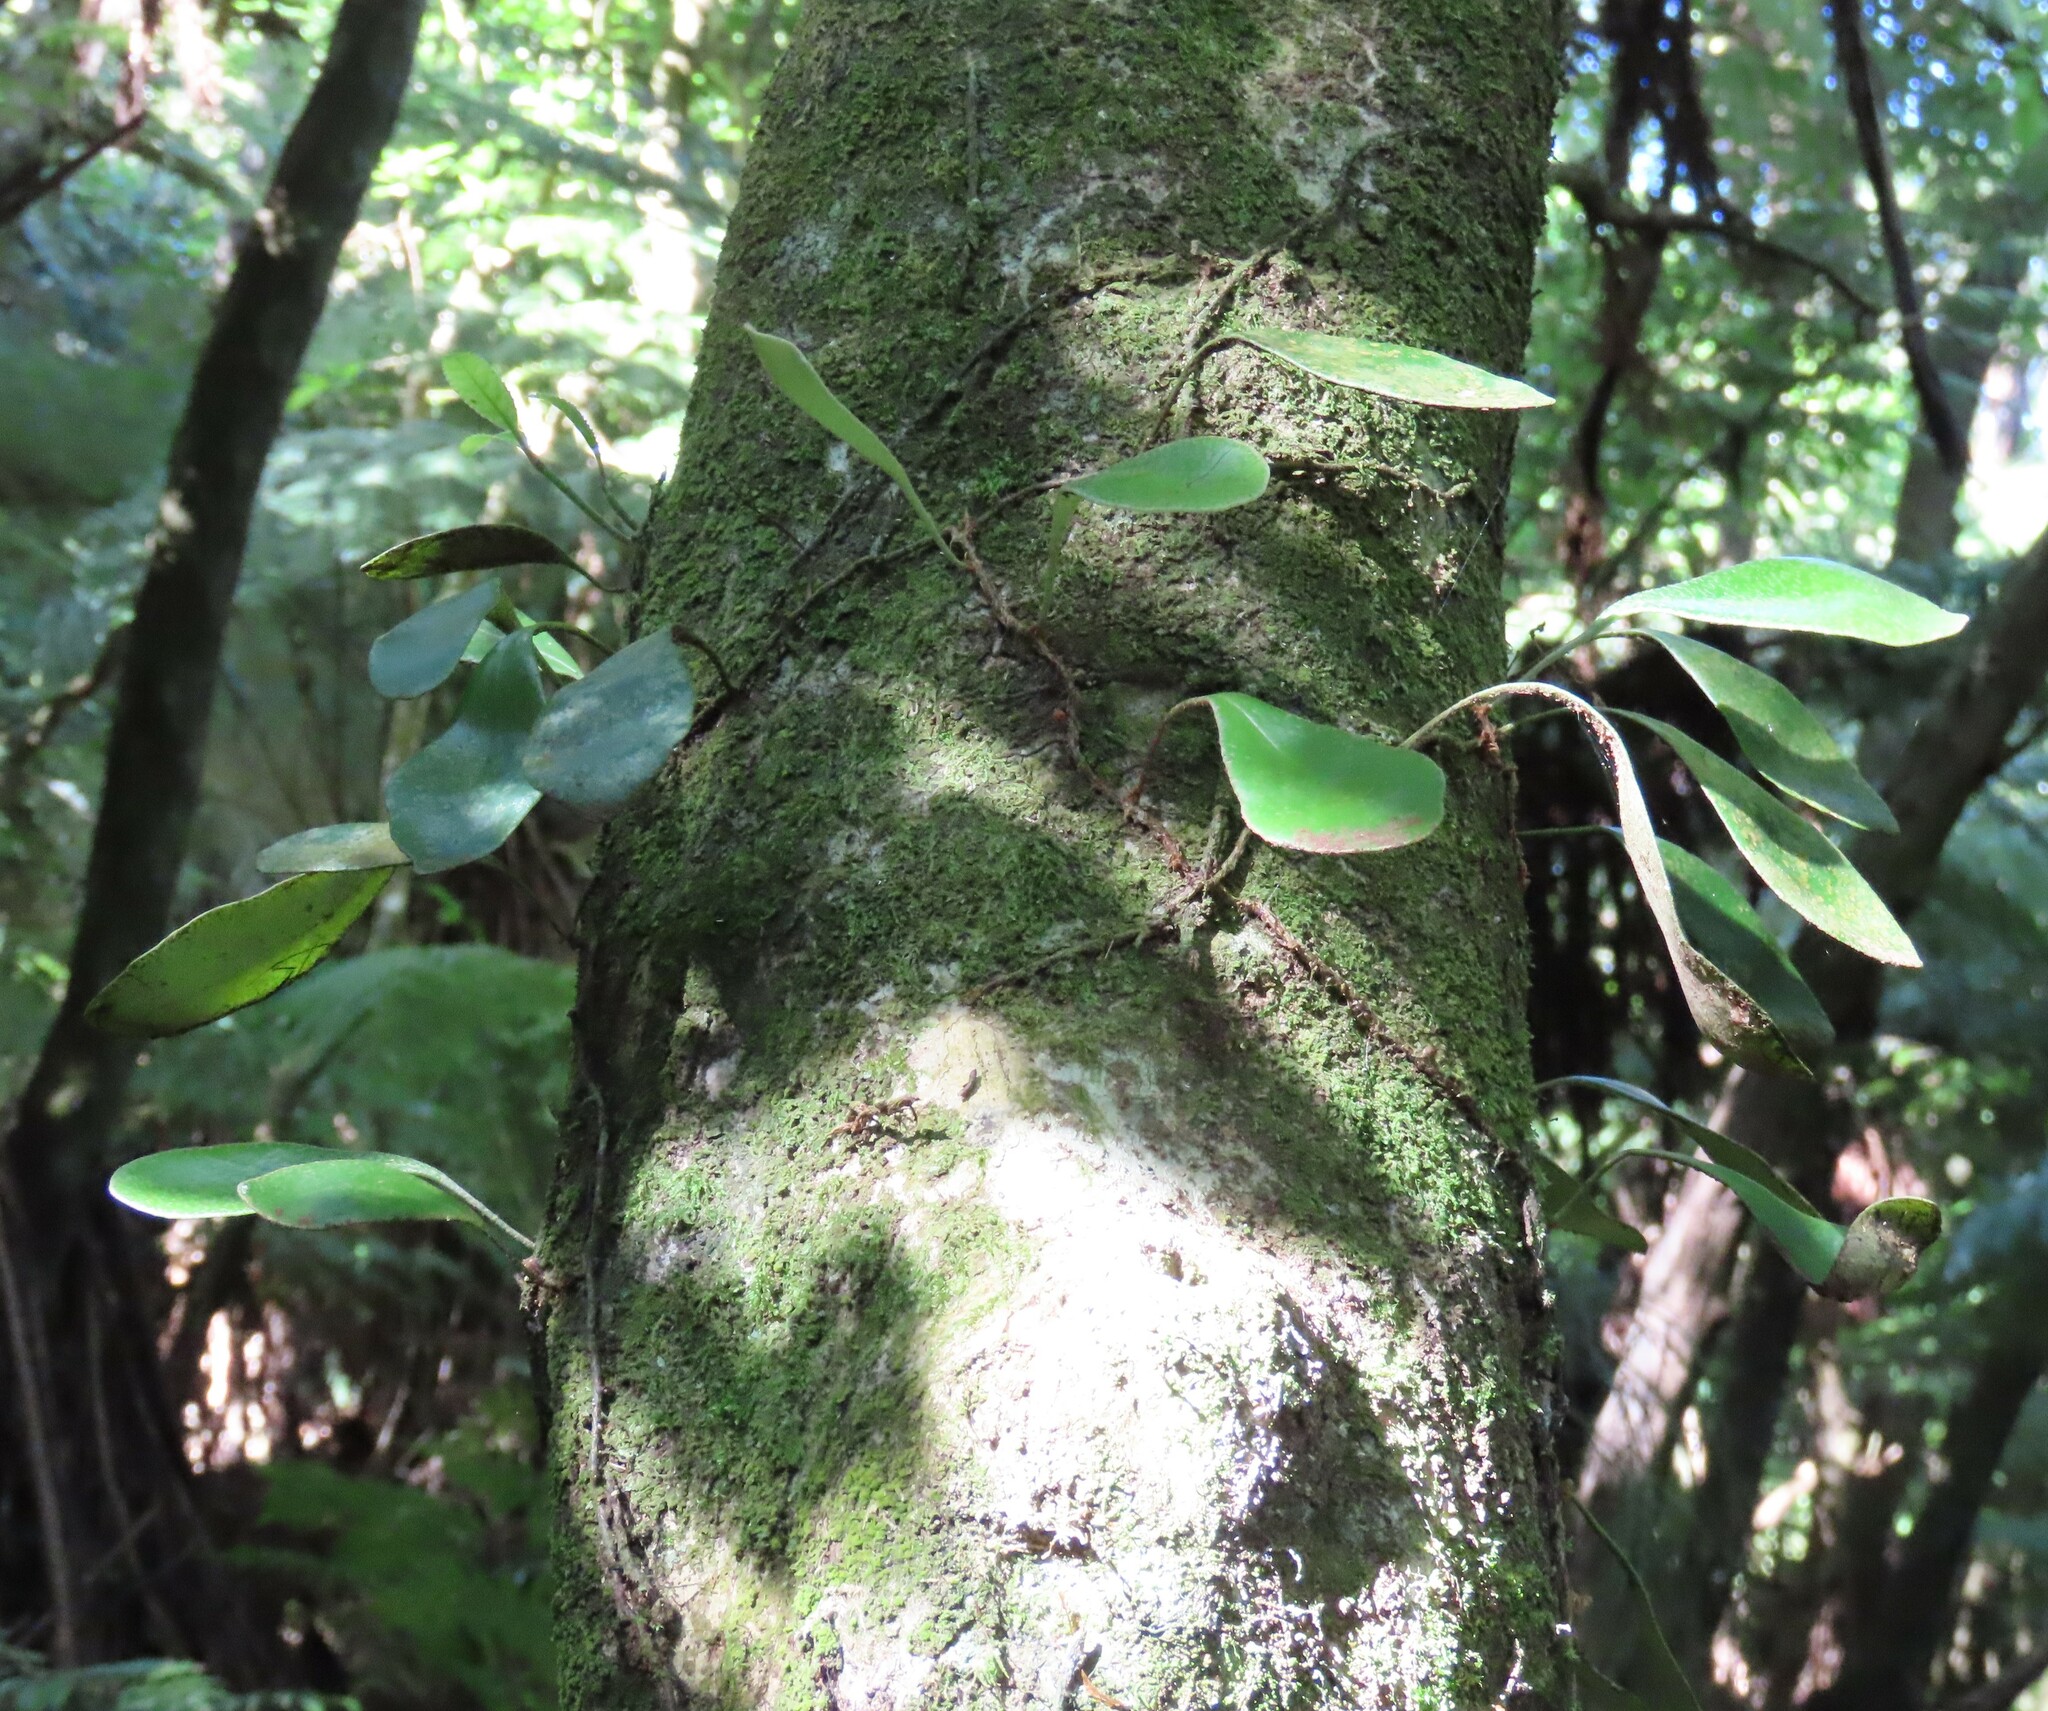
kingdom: Plantae
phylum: Tracheophyta
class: Polypodiopsida
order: Polypodiales
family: Polypodiaceae
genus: Pyrrosia
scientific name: Pyrrosia eleagnifolia
